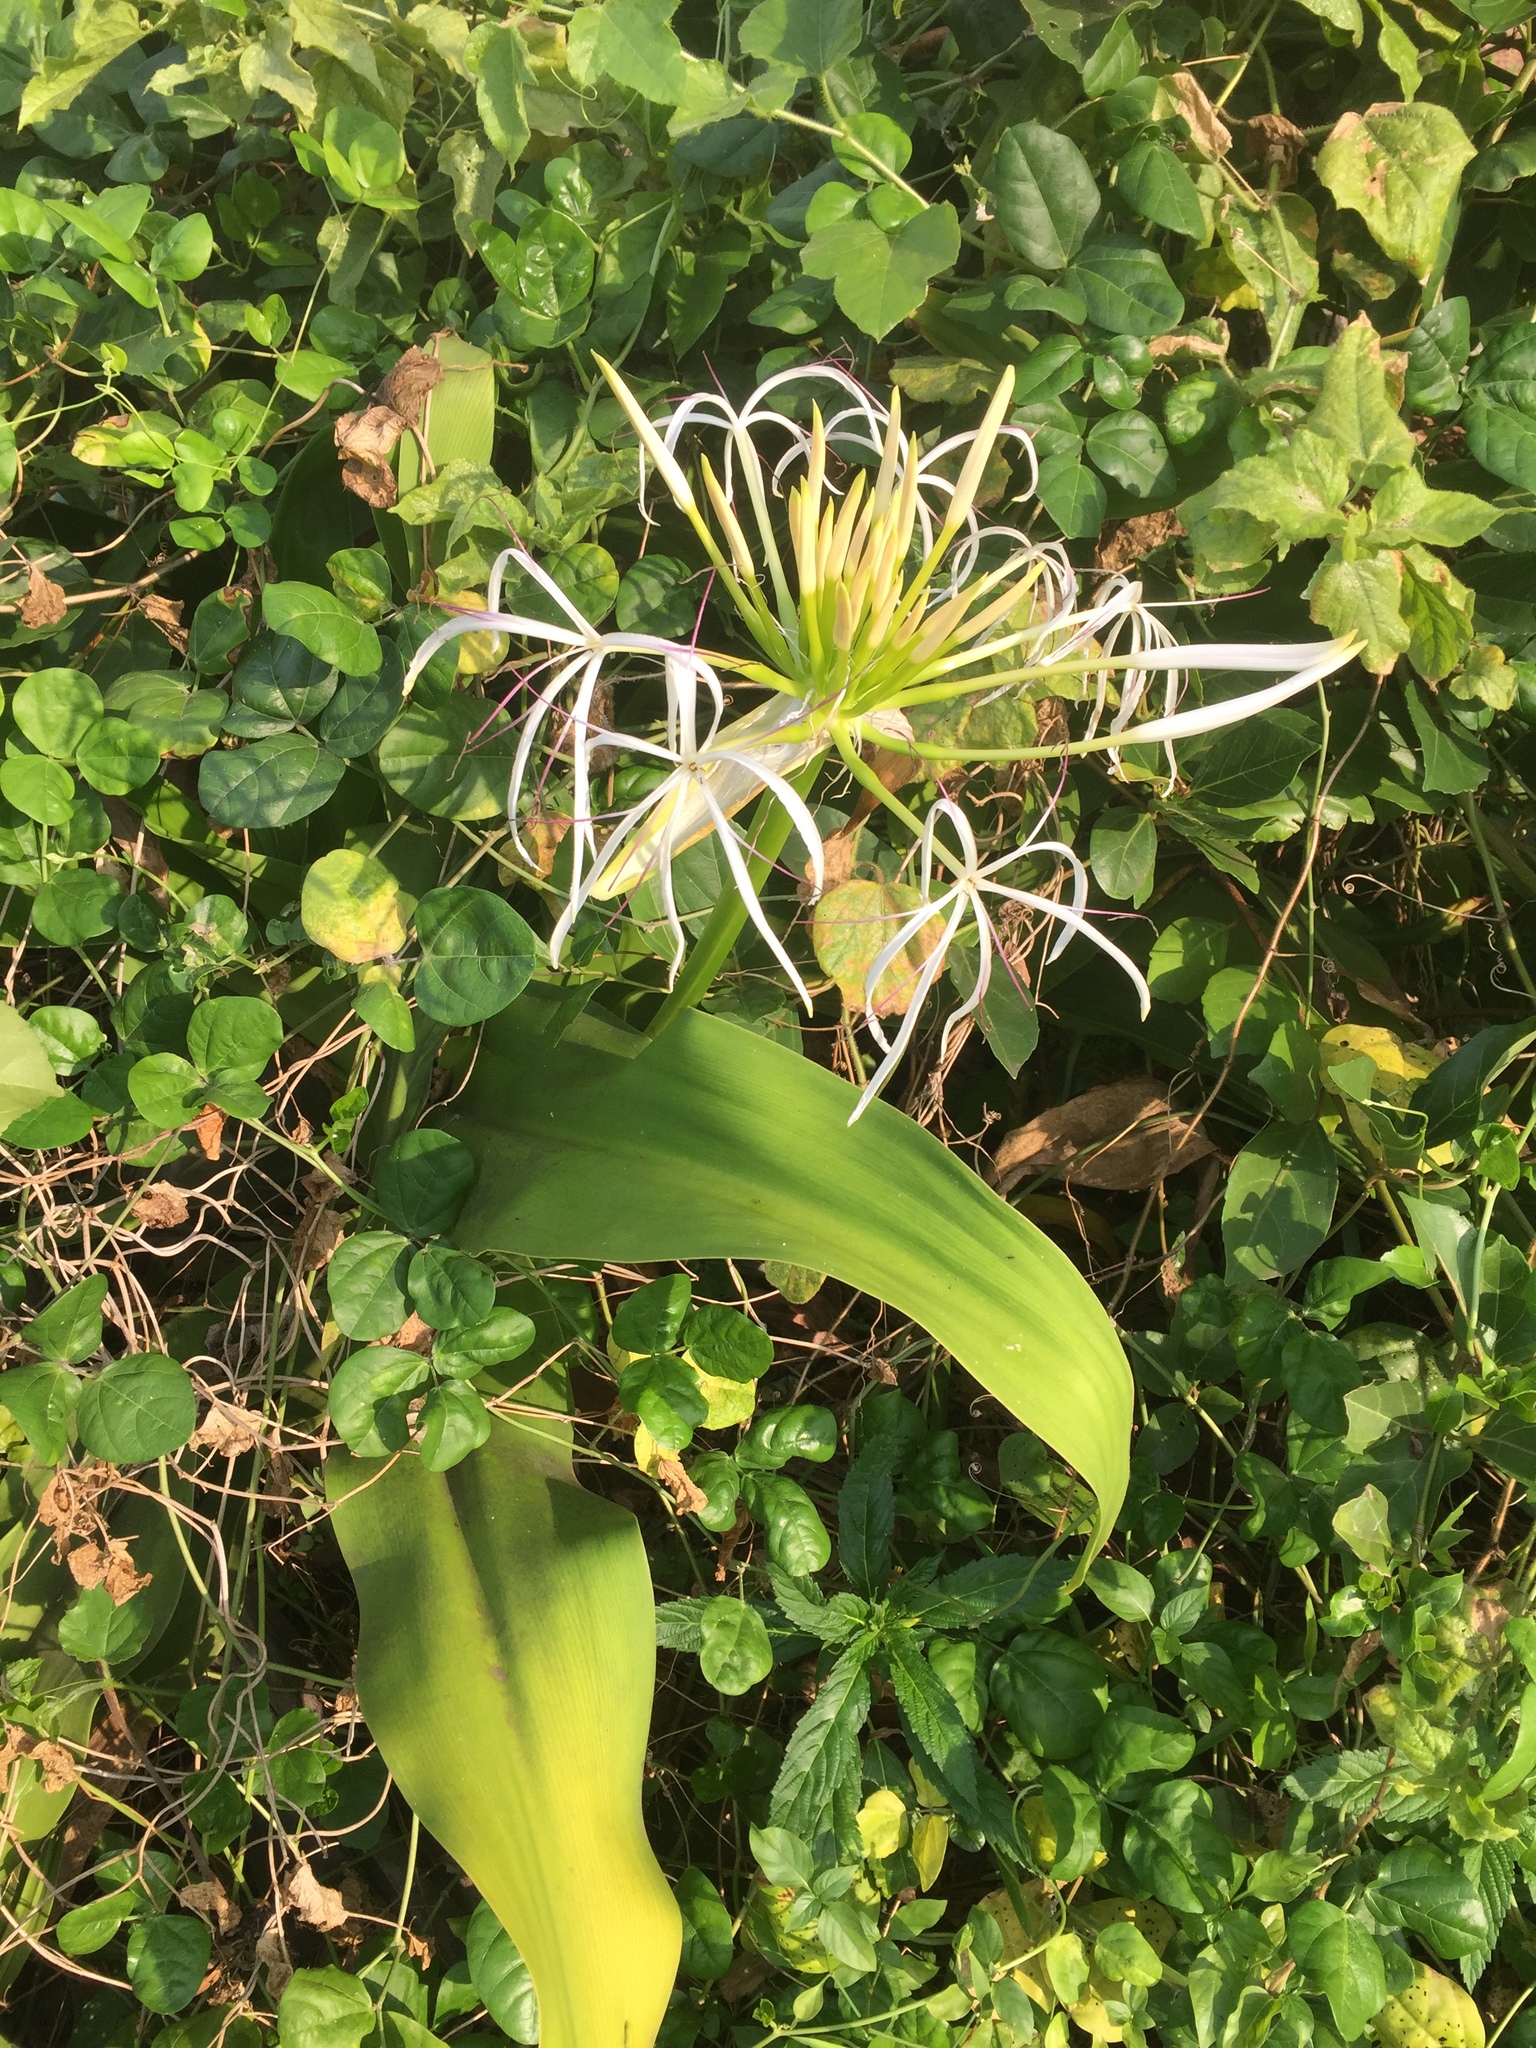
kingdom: Plantae
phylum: Tracheophyta
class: Liliopsida
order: Asparagales
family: Amaryllidaceae
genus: Crinum
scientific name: Crinum asiaticum
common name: Poisonbulb
